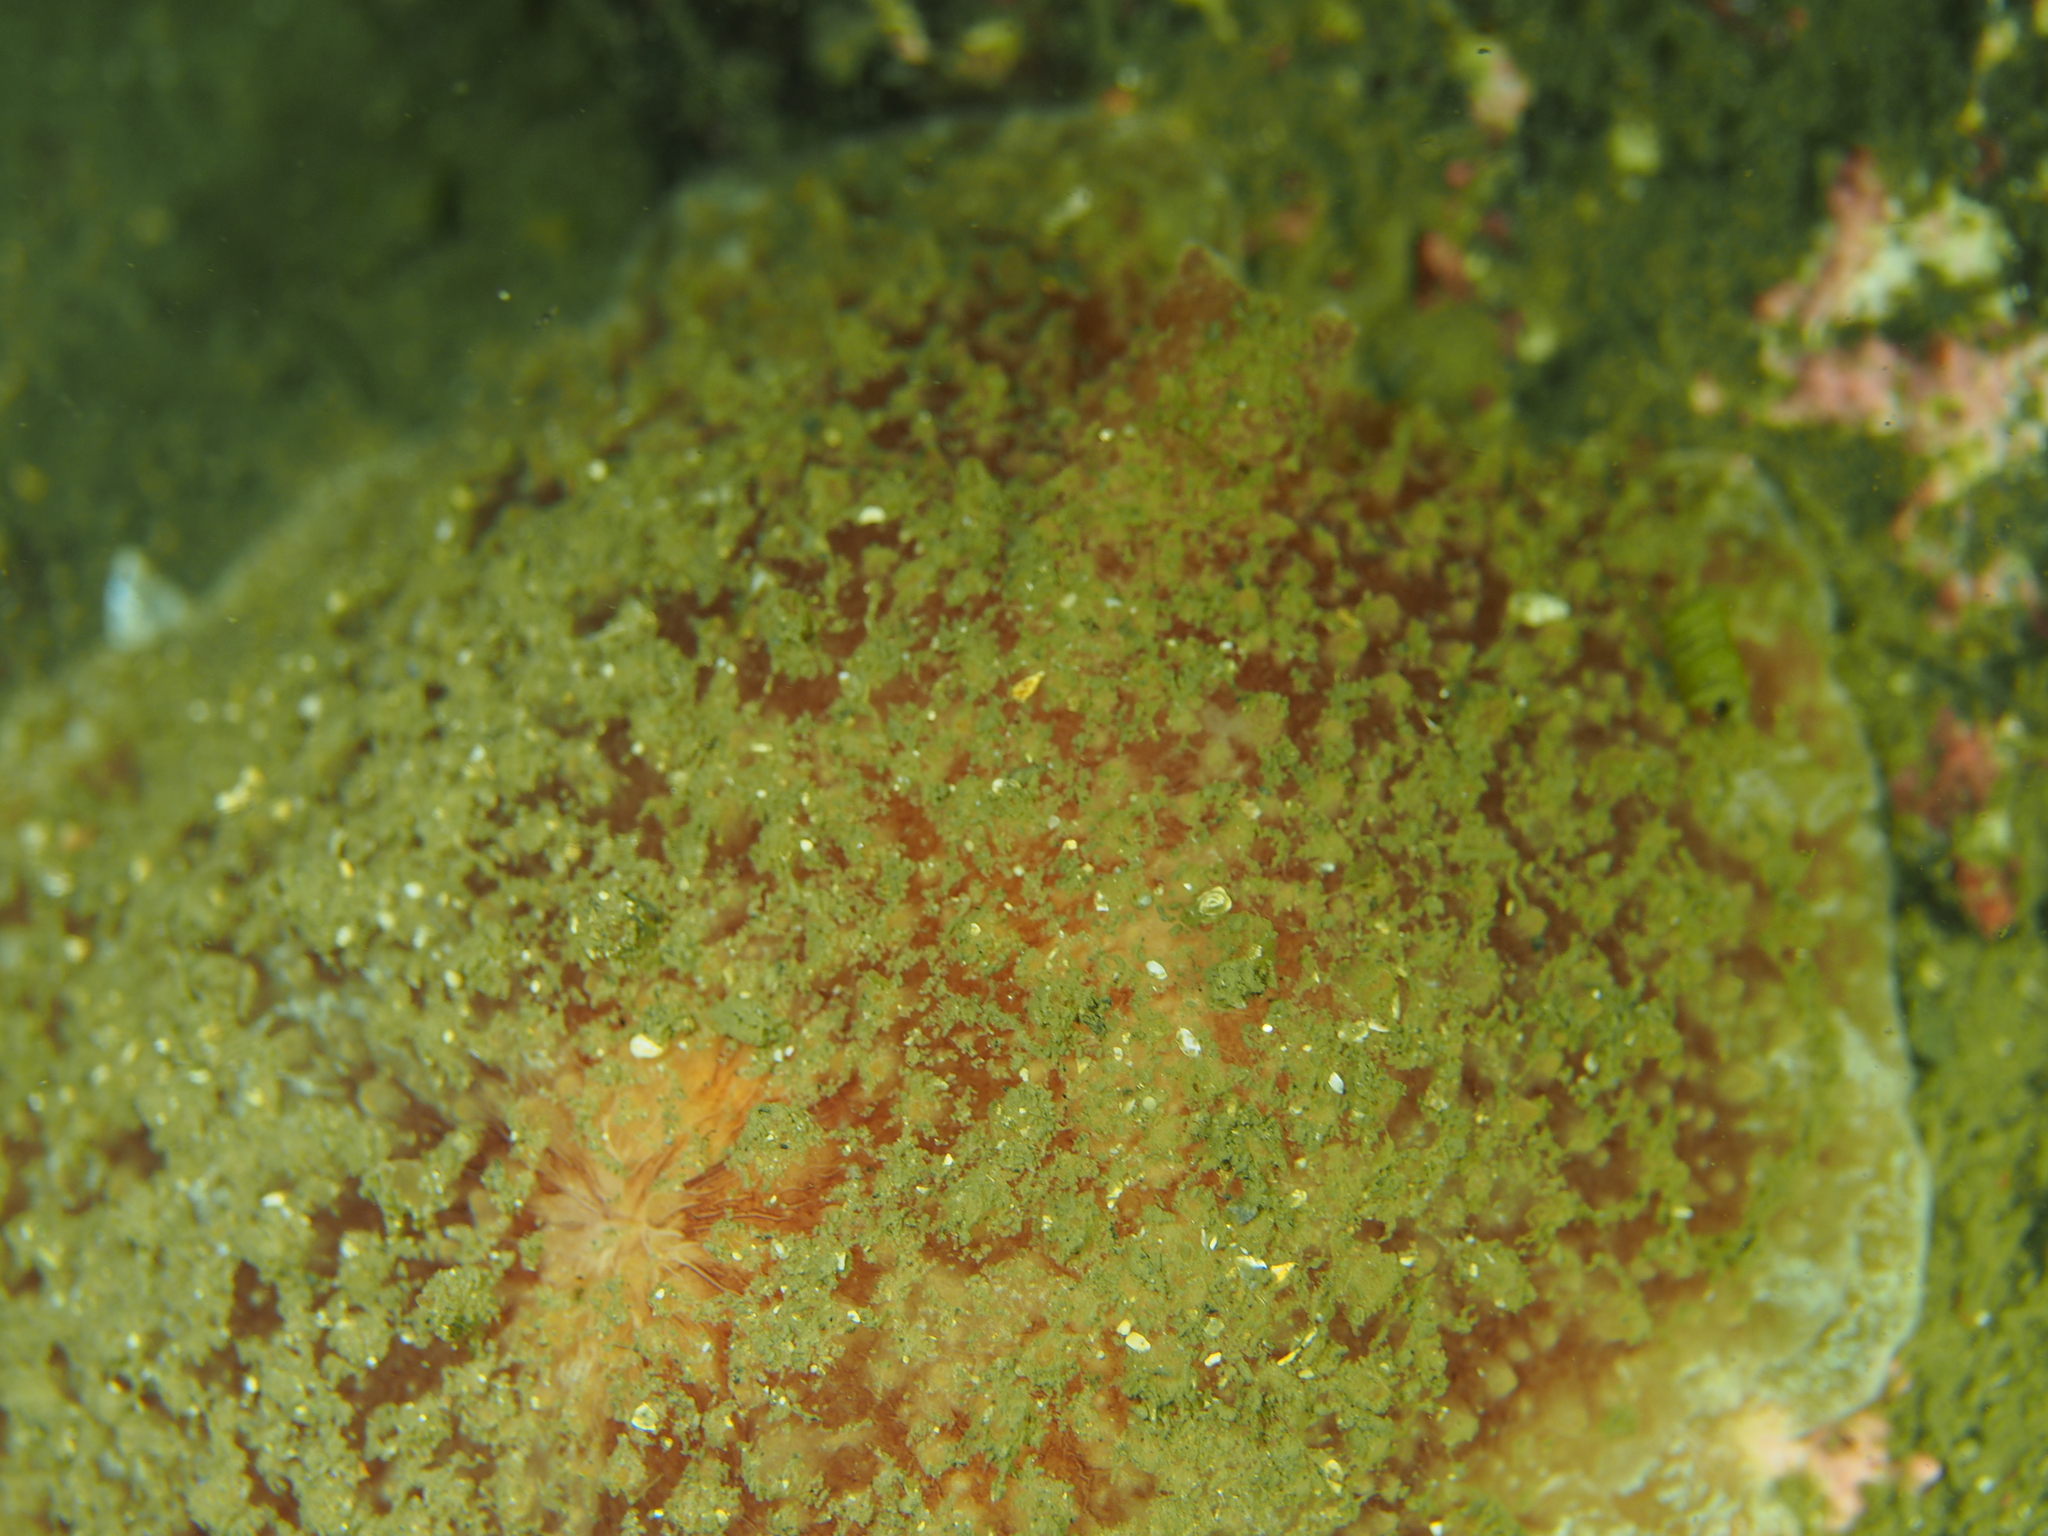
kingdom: Animalia
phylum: Mollusca
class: Gastropoda
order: Pleurobranchida
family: Pleurobranchidae
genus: Pleurobranchus
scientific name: Pleurobranchus membranaceus
